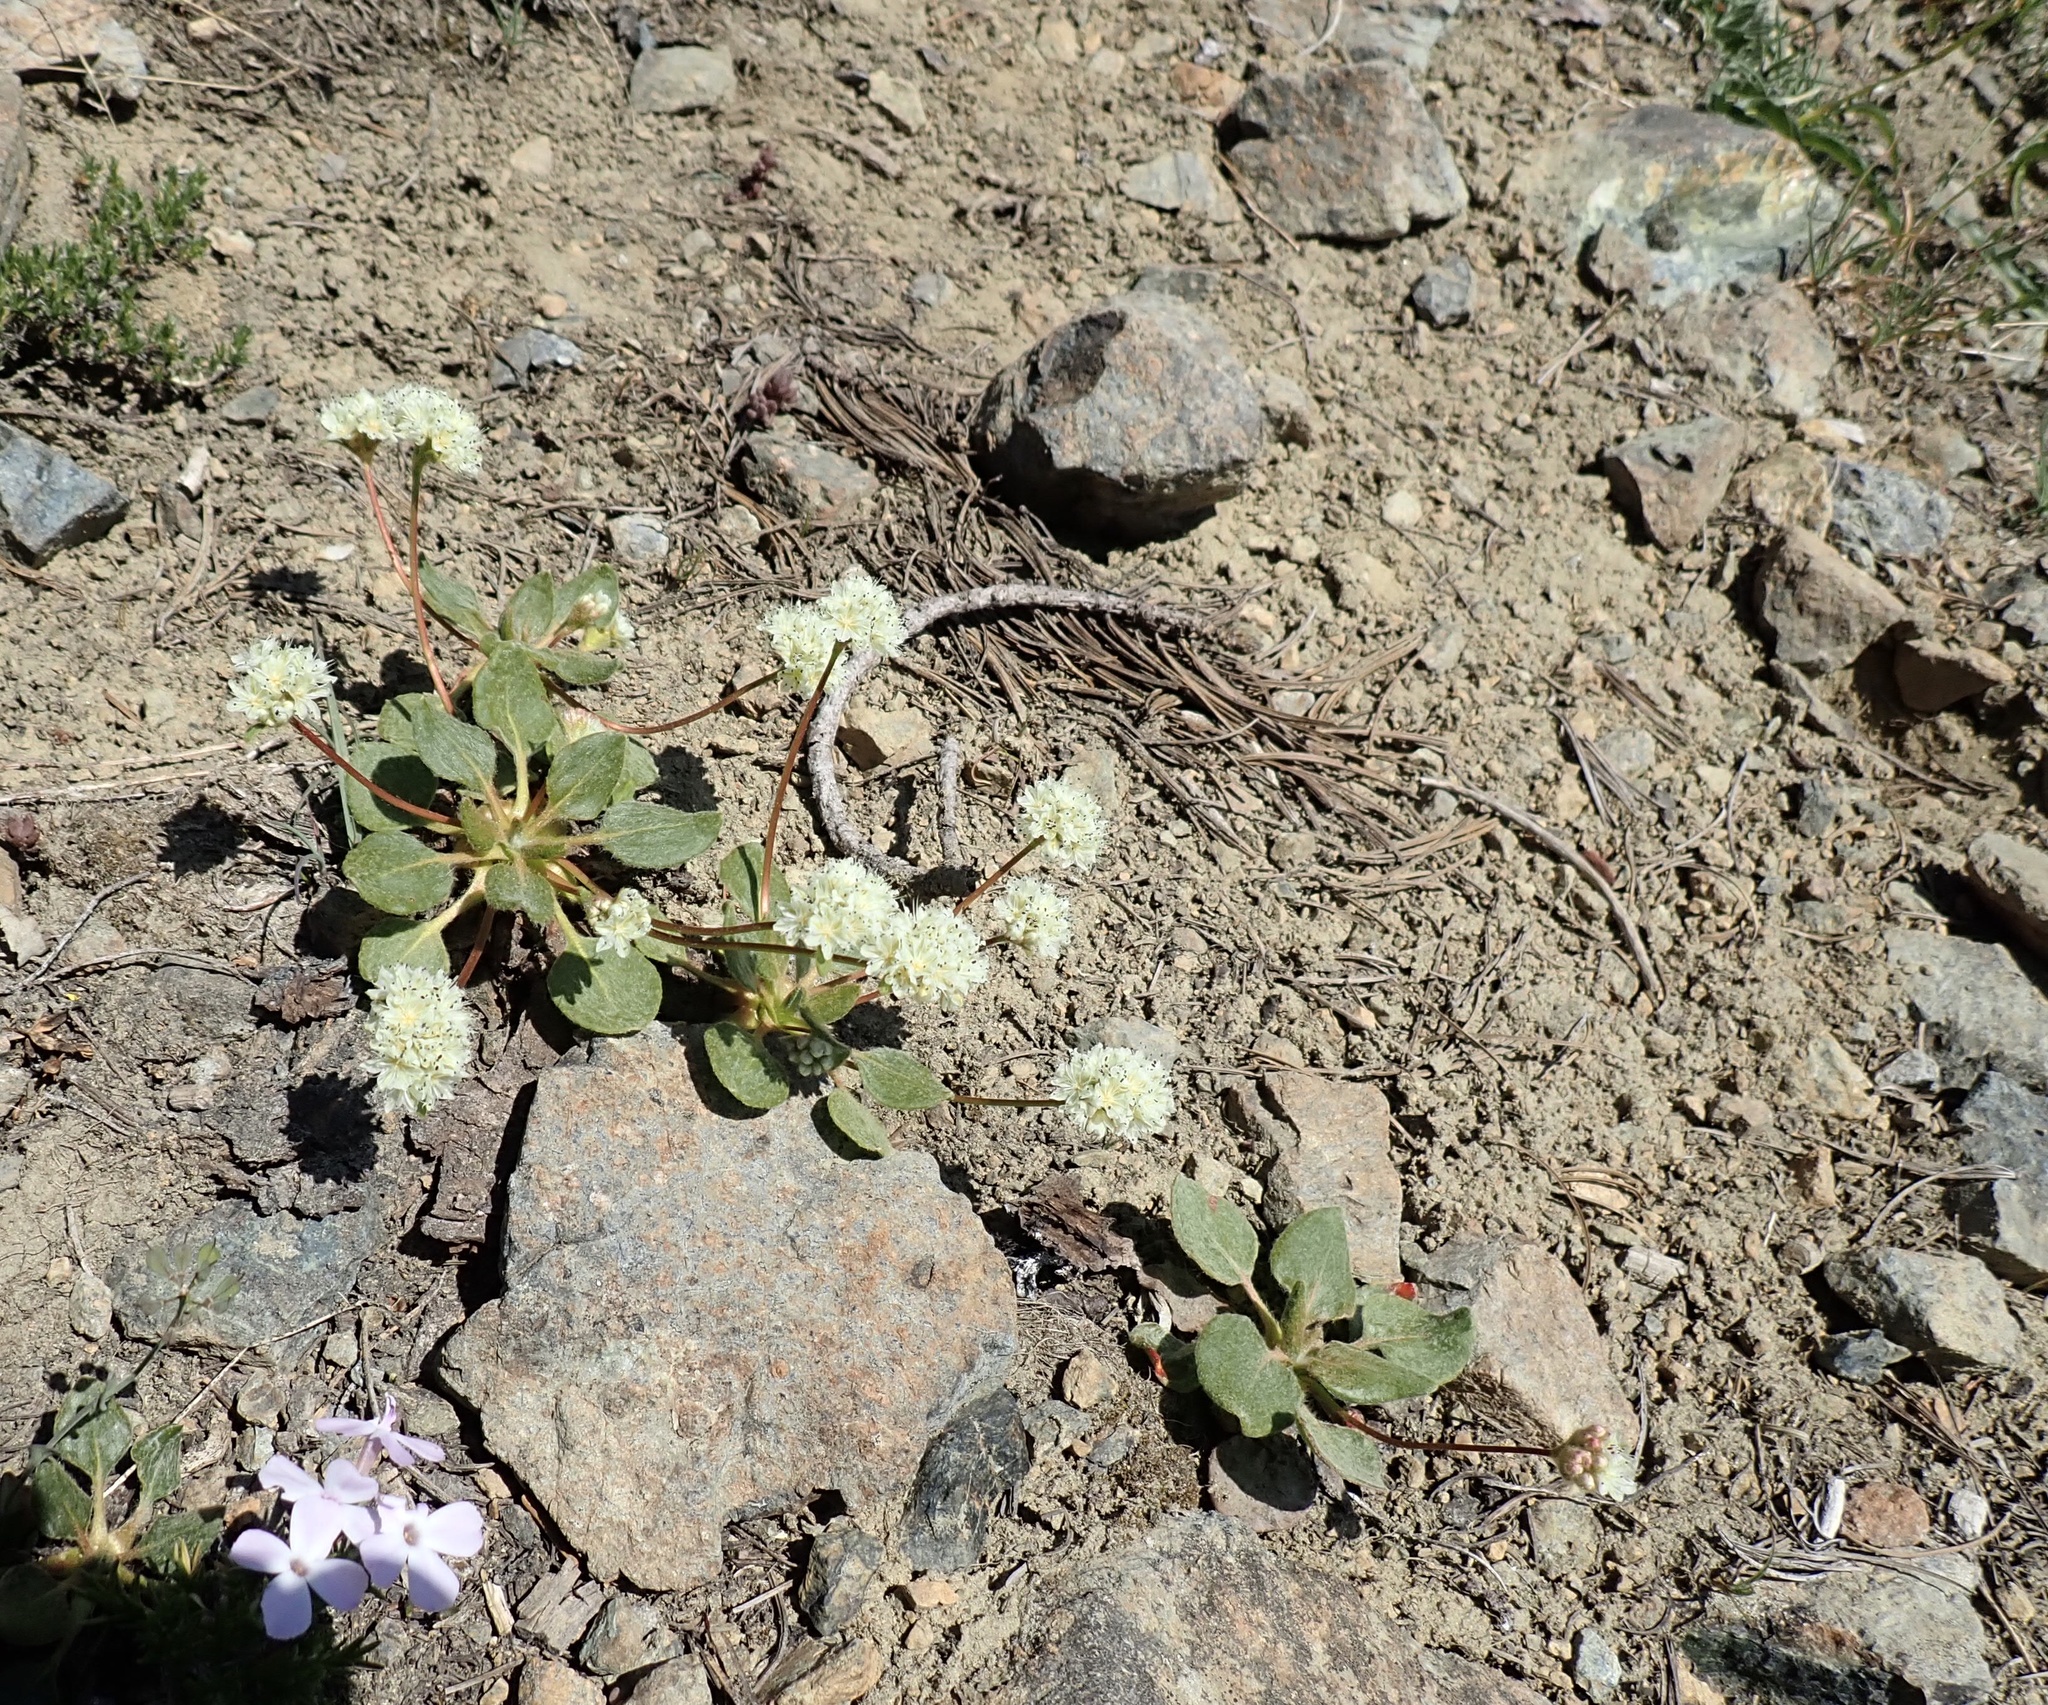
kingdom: Plantae
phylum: Tracheophyta
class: Magnoliopsida
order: Caryophyllales
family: Polygonaceae
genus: Eriogonum
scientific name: Eriogonum pyrolifolium
